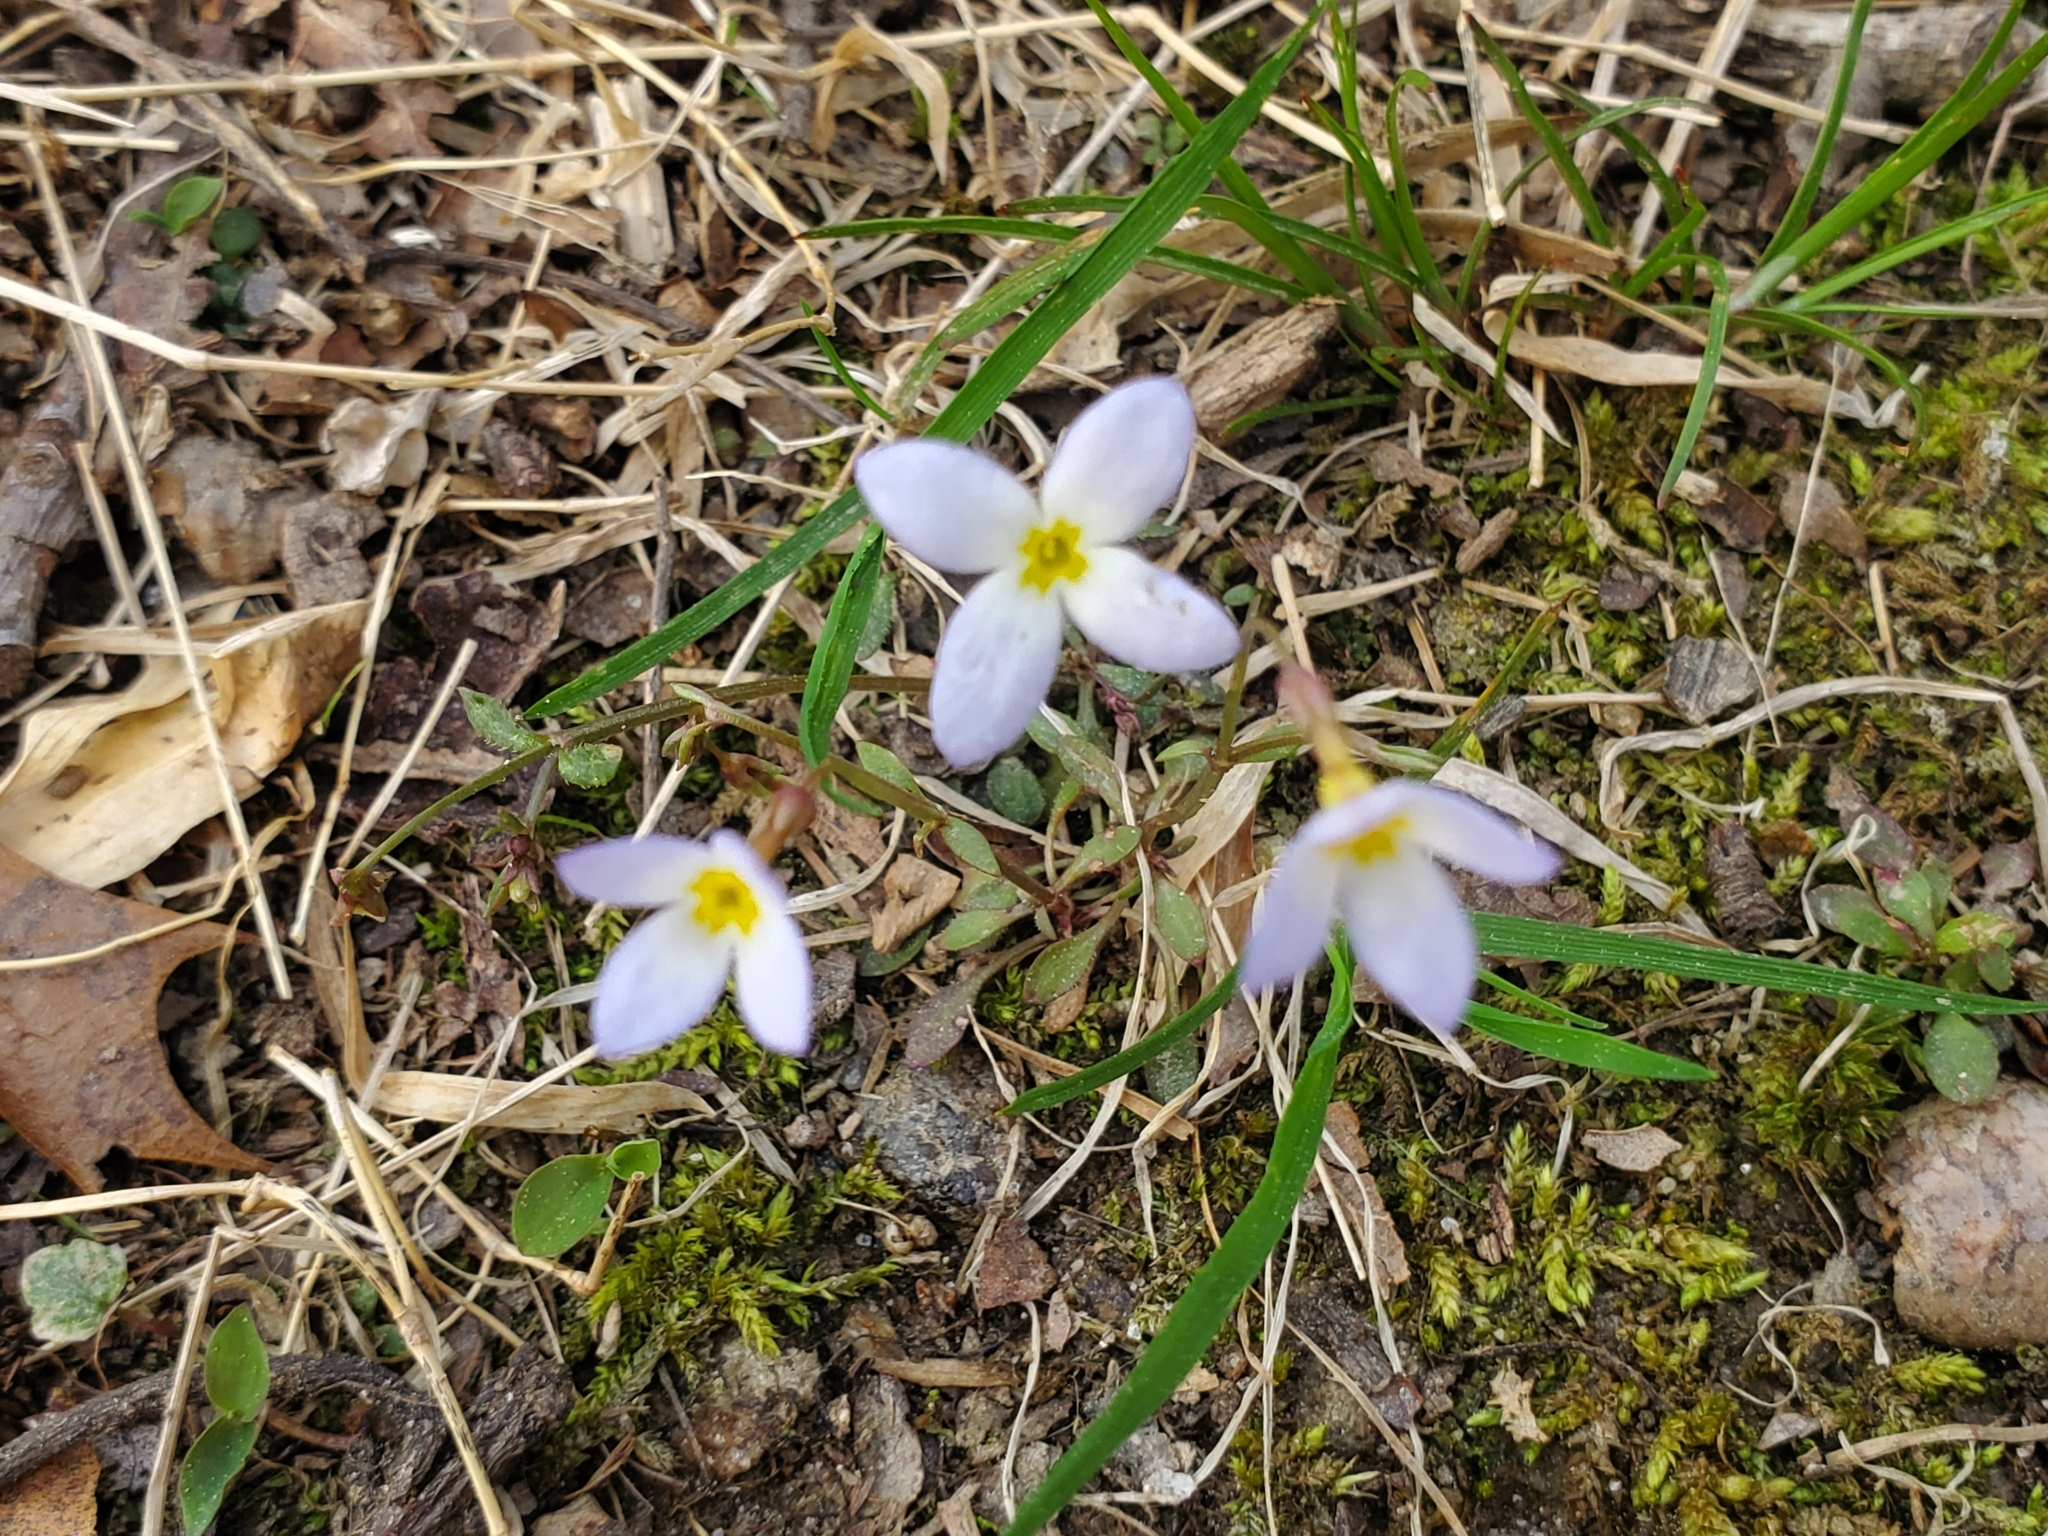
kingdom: Plantae
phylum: Tracheophyta
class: Magnoliopsida
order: Gentianales
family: Rubiaceae
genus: Houstonia
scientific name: Houstonia caerulea
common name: Bluets
